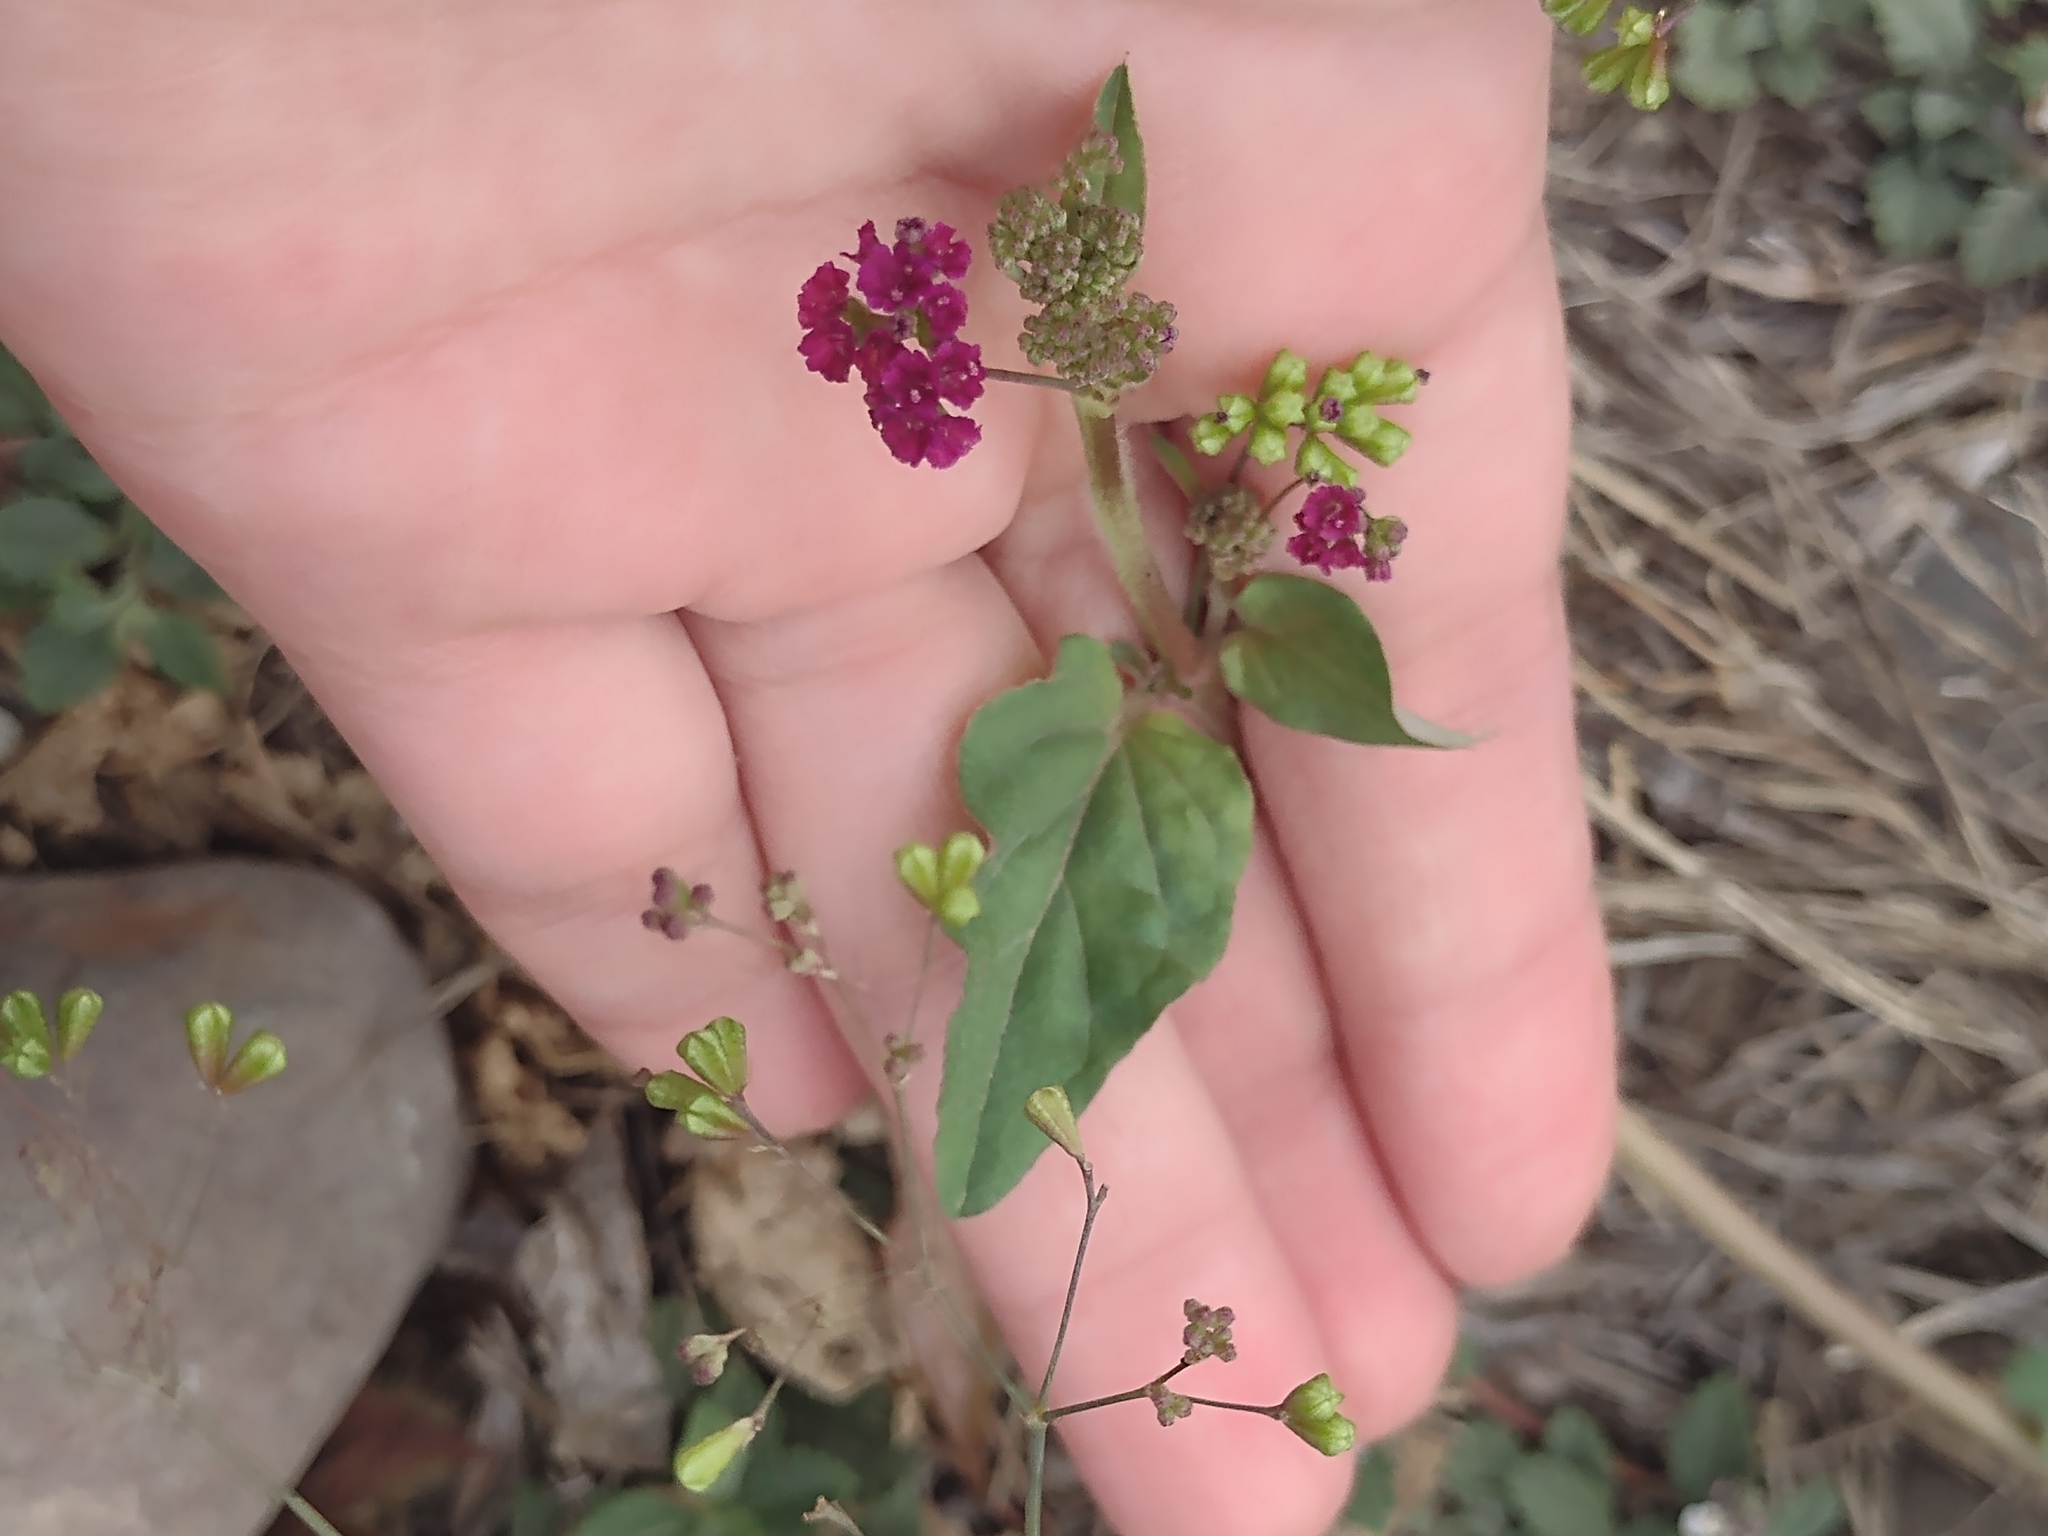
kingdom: Plantae
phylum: Tracheophyta
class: Magnoliopsida
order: Caryophyllales
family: Nyctaginaceae
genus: Boerhavia
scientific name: Boerhavia diffusa
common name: Red spiderling
